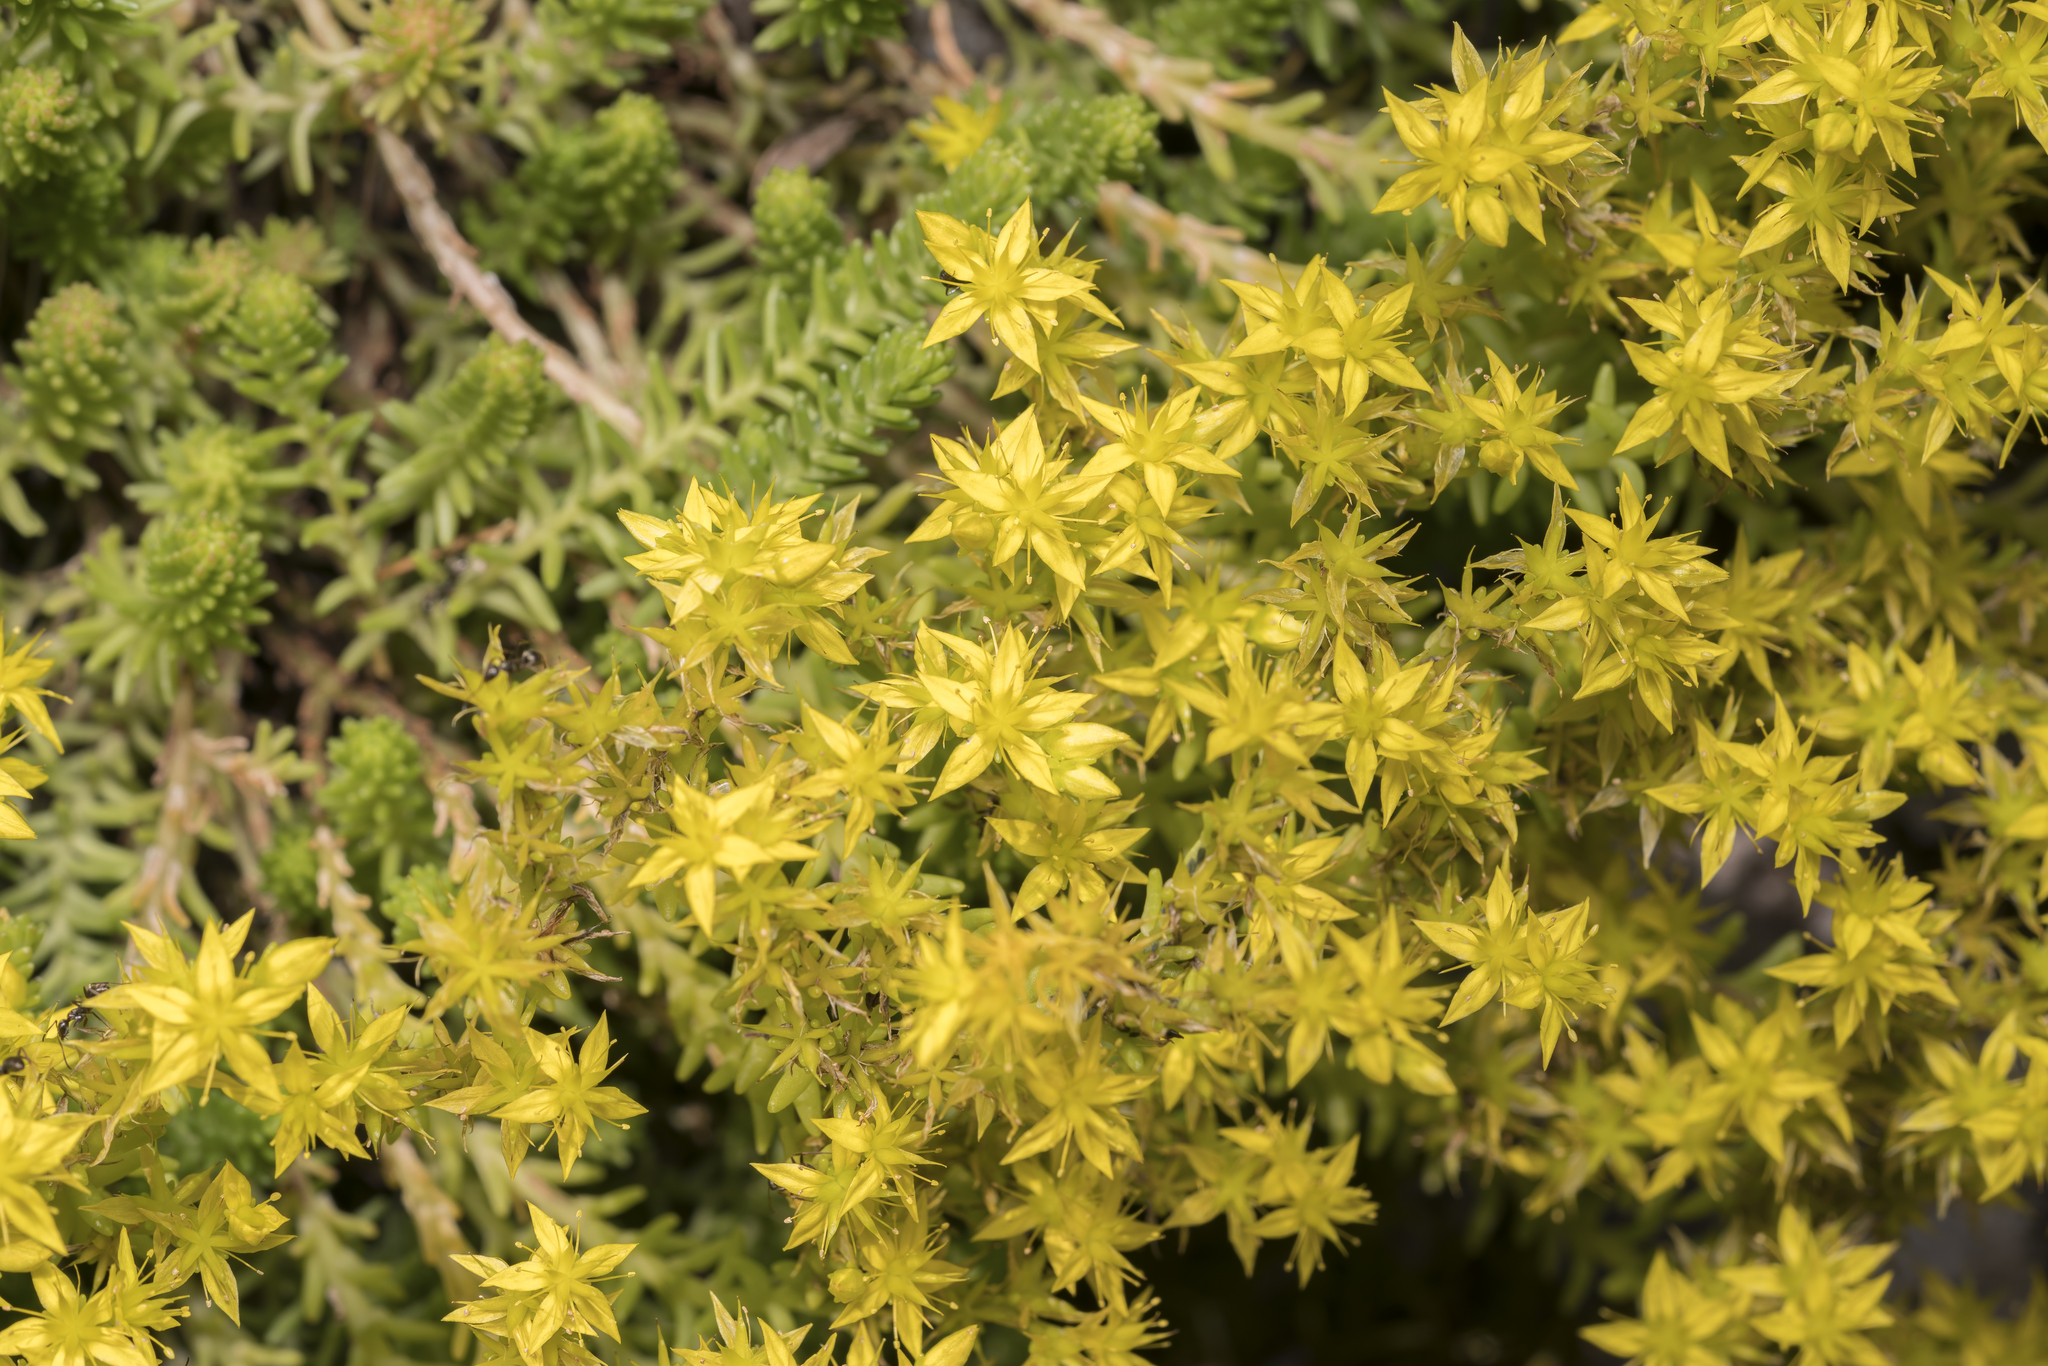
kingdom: Plantae
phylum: Tracheophyta
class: Magnoliopsida
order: Saxifragales
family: Crassulaceae
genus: Sedum
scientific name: Sedum sexangulare
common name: Tasteless stonecrop
